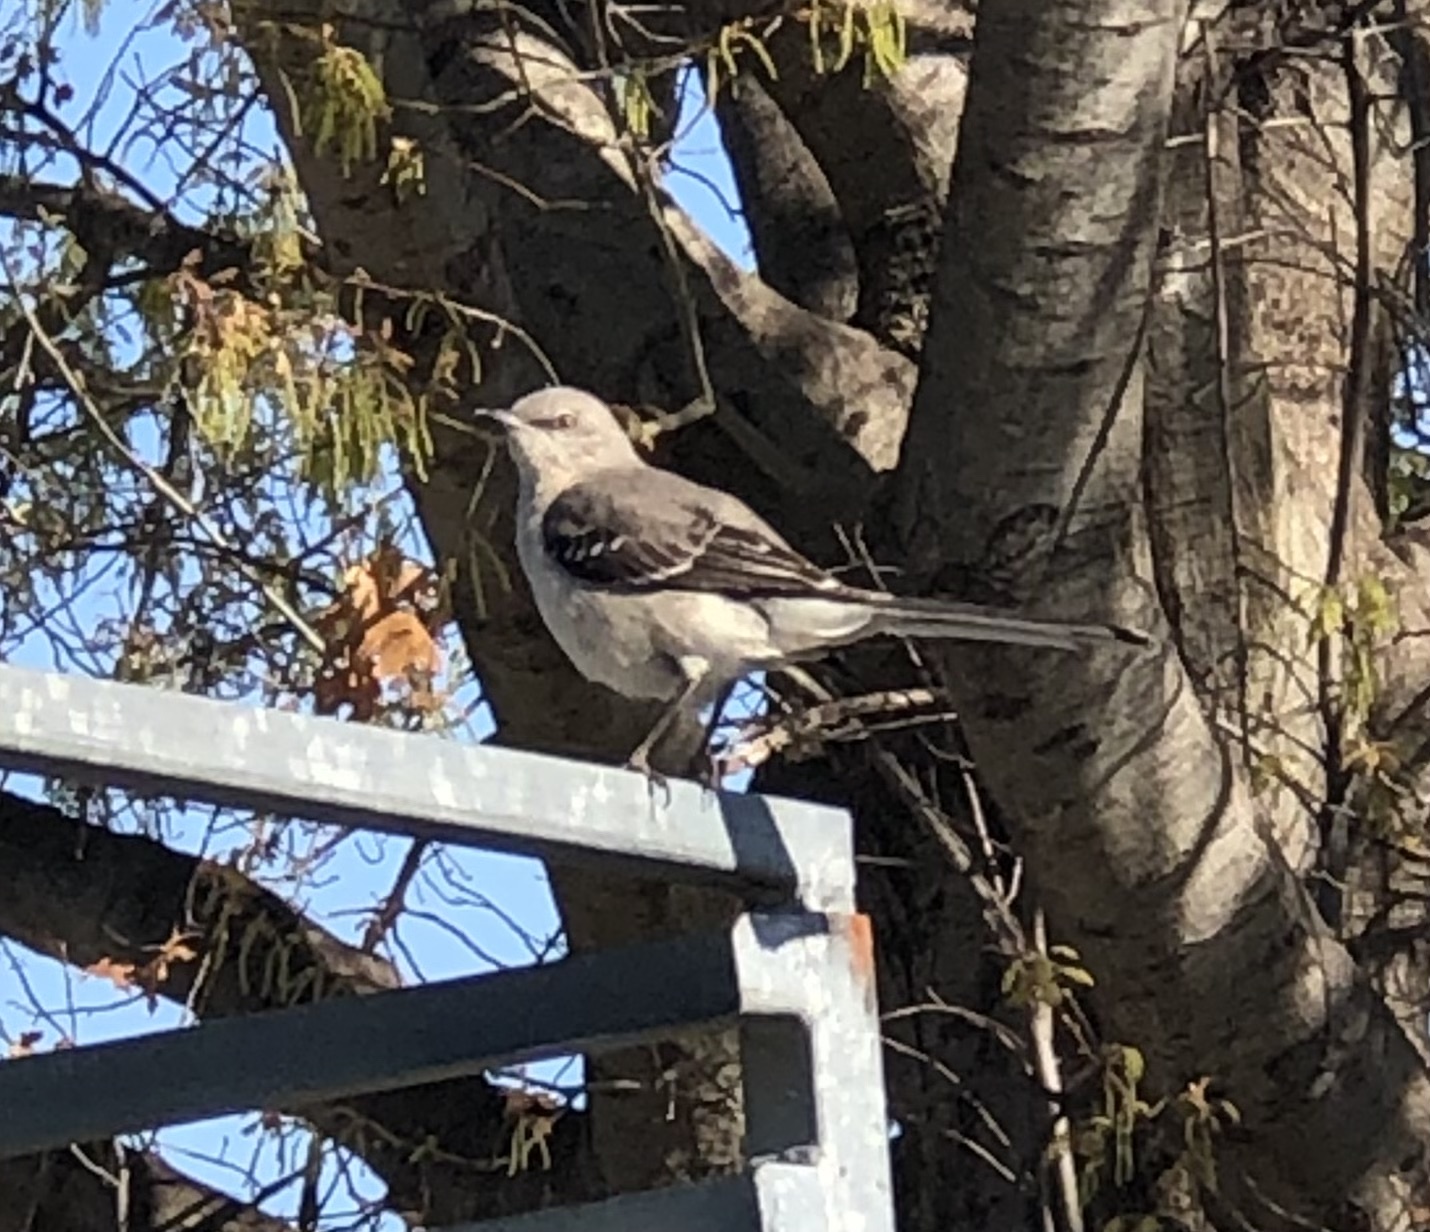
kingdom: Animalia
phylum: Chordata
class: Aves
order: Passeriformes
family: Mimidae
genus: Mimus
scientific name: Mimus polyglottos
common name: Northern mockingbird
